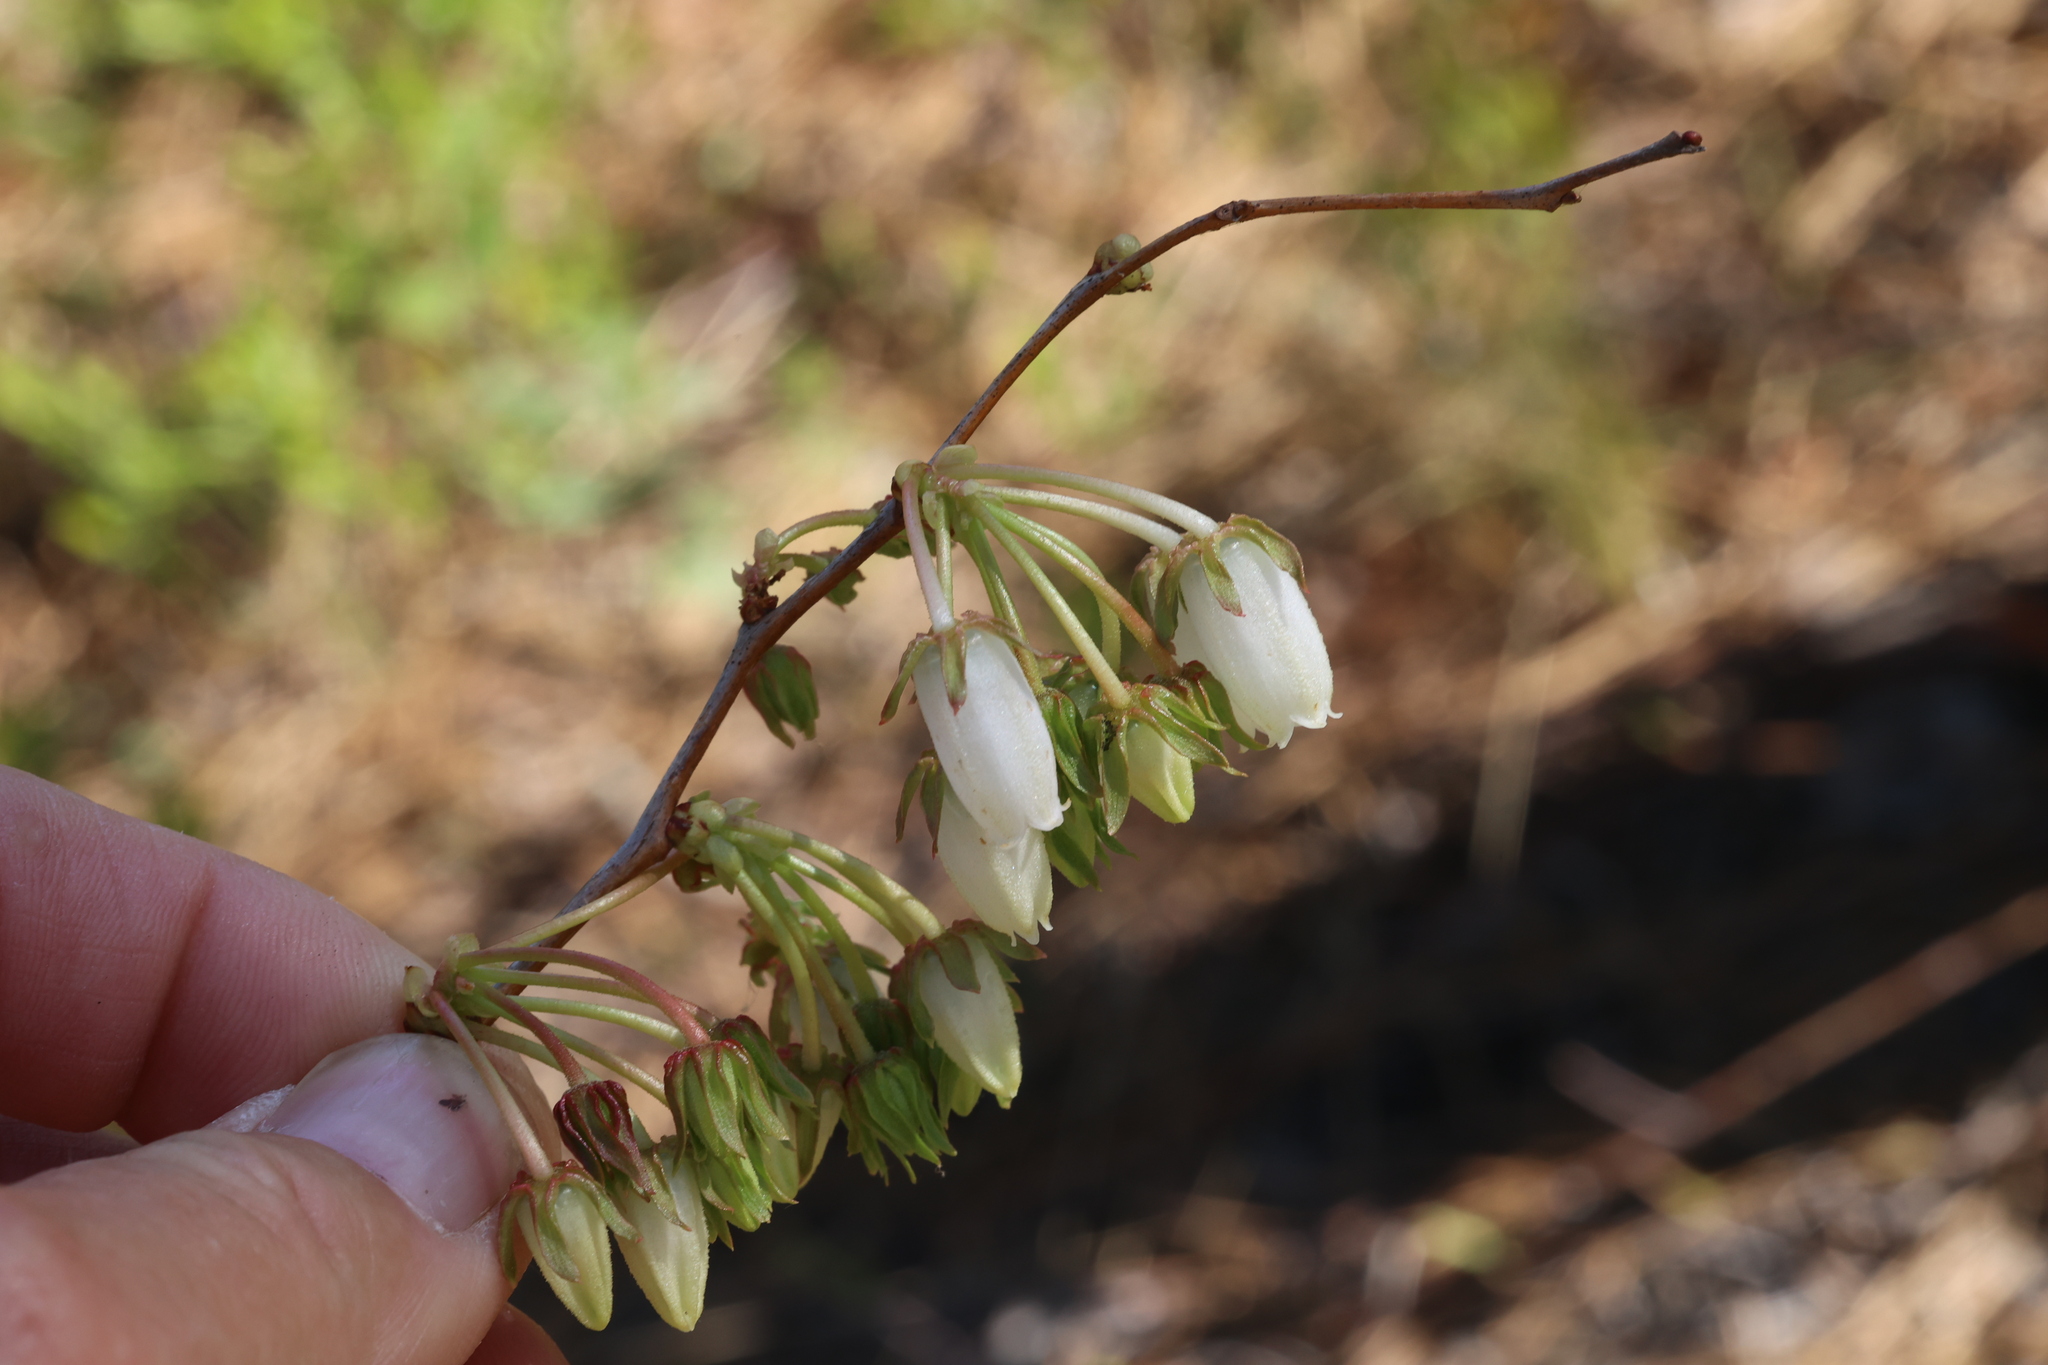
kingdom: Plantae
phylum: Tracheophyta
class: Magnoliopsida
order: Ericales
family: Ericaceae
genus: Lyonia
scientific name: Lyonia mariana
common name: Staggerbush
